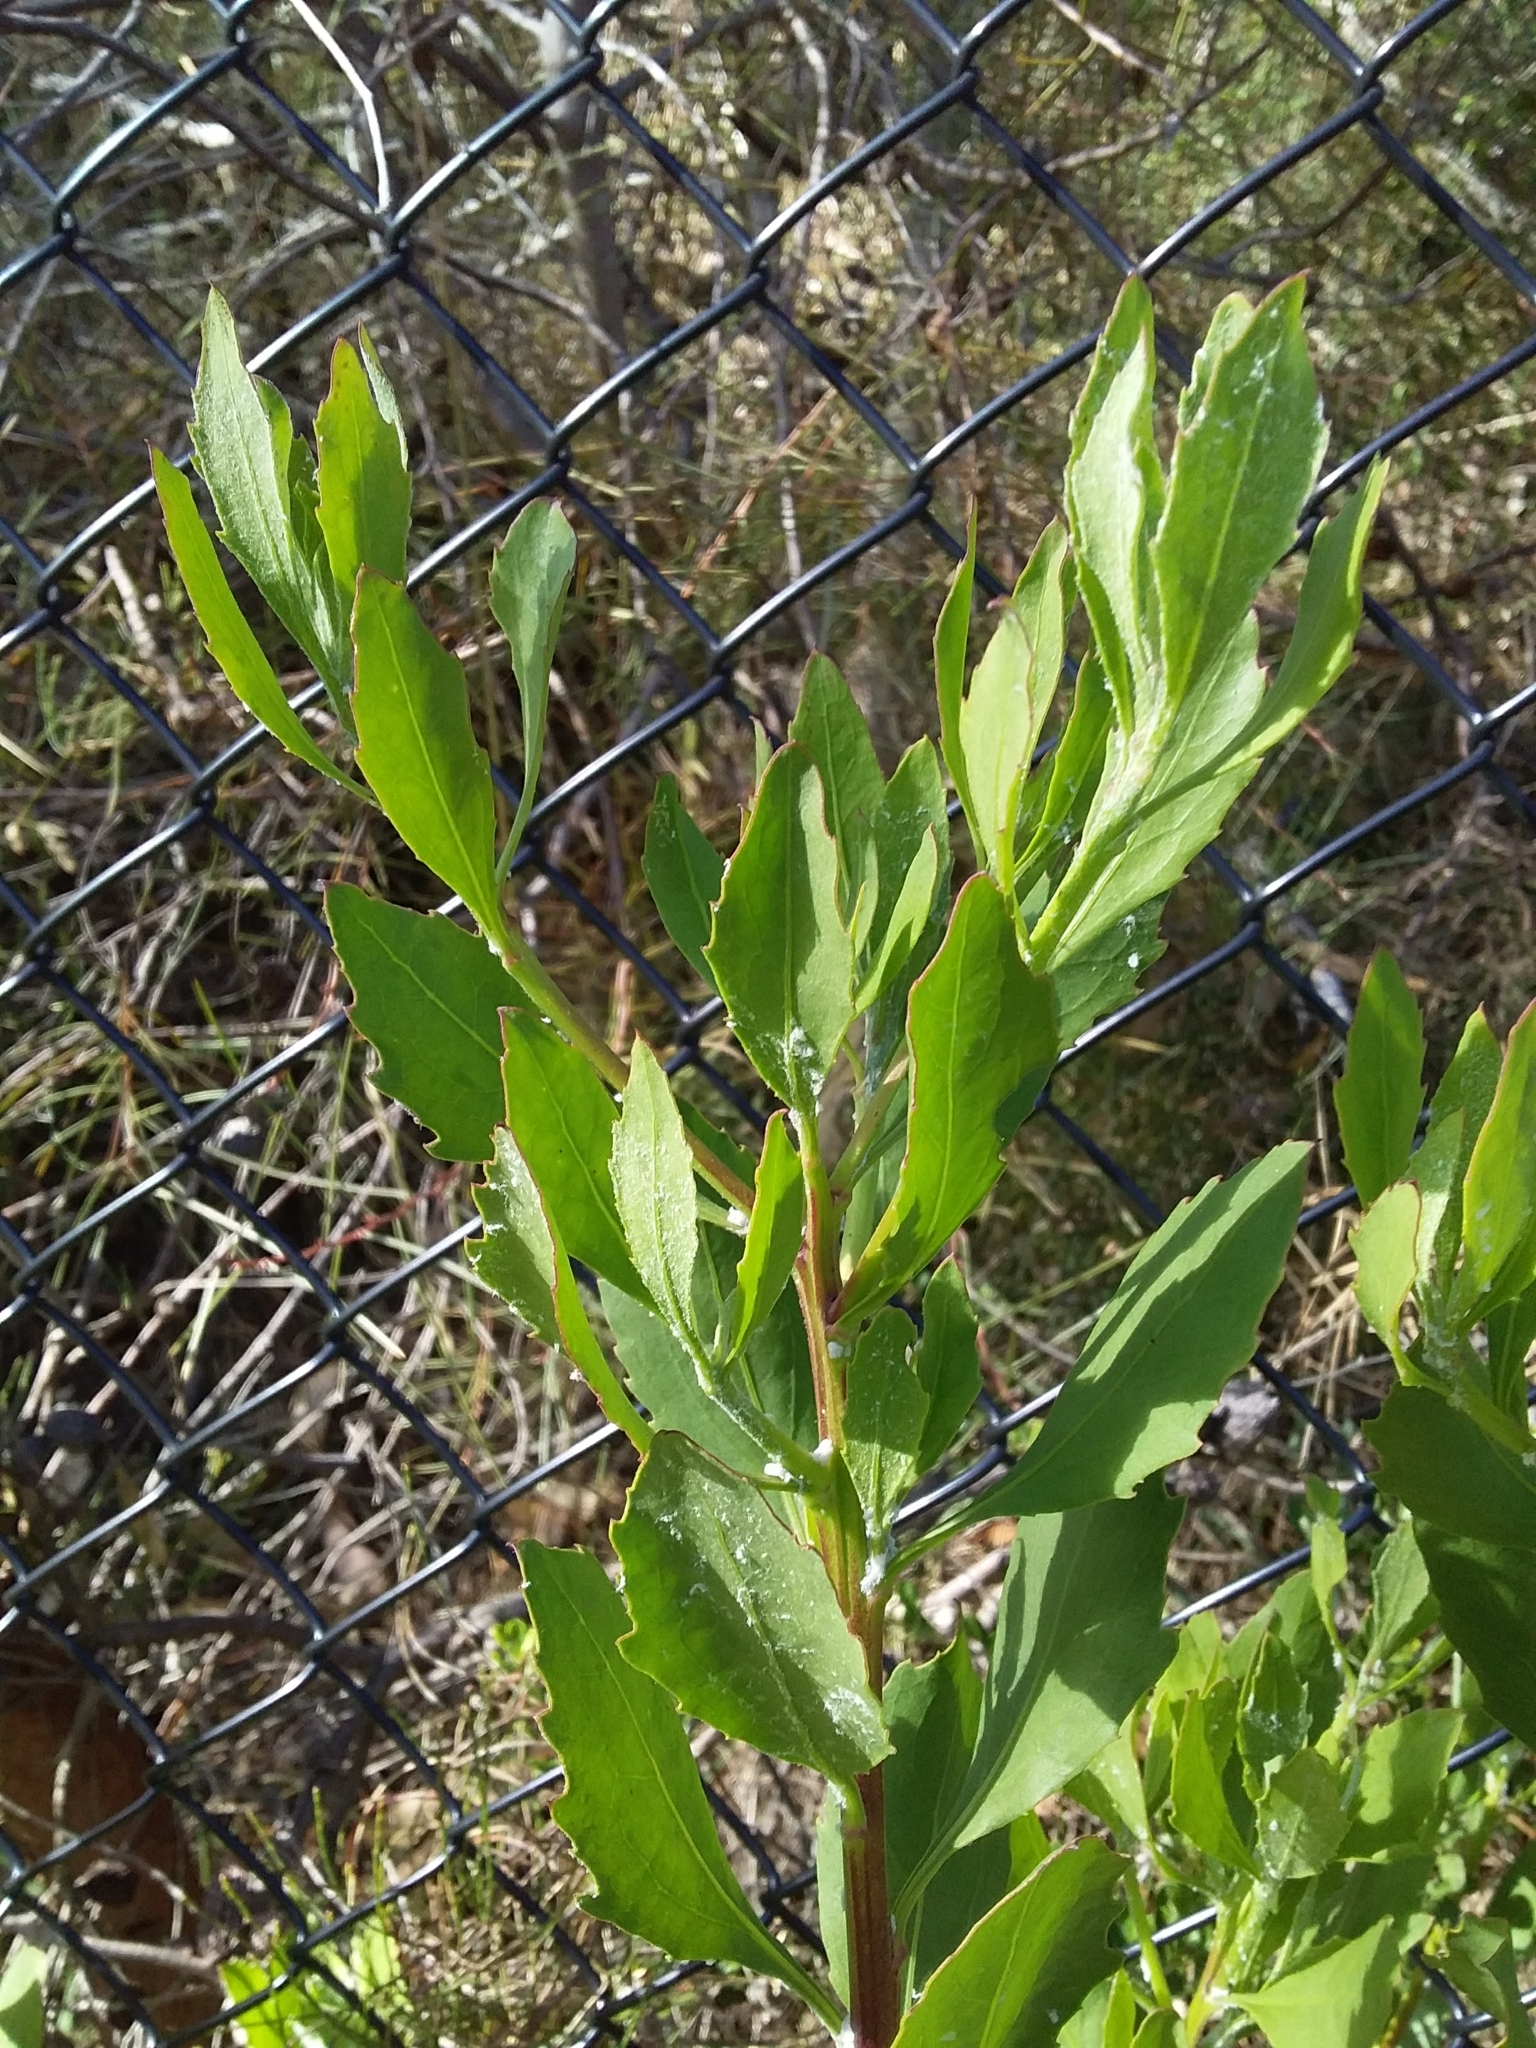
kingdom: Plantae
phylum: Tracheophyta
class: Magnoliopsida
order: Asterales
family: Asteraceae
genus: Osteospermum
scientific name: Osteospermum moniliferum
